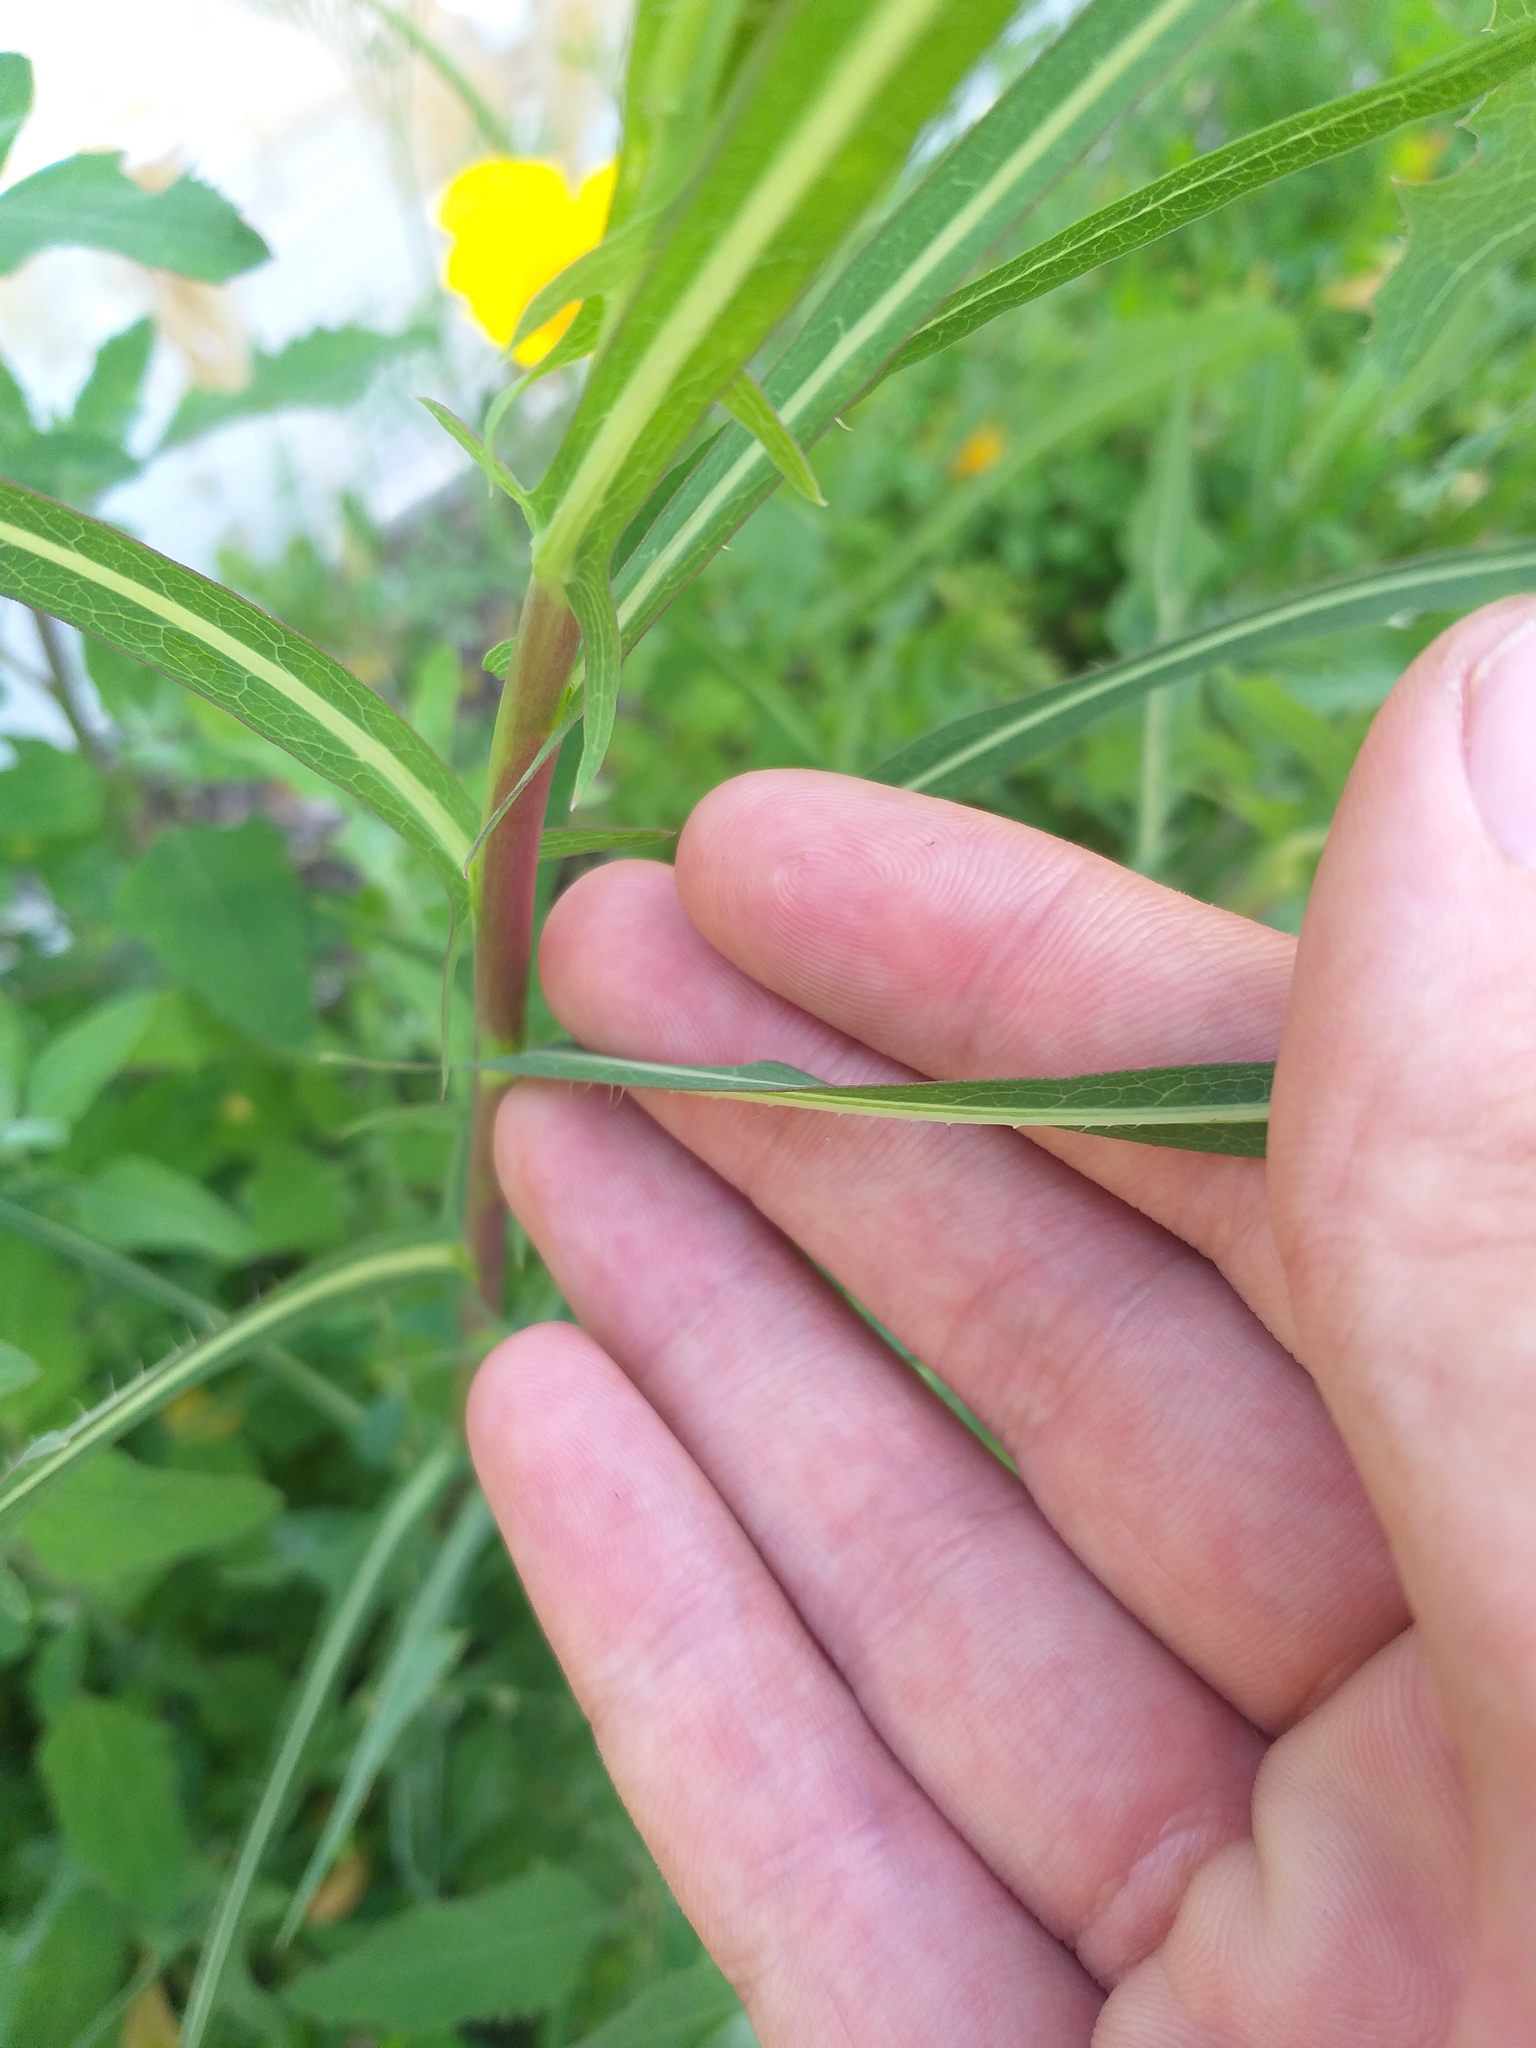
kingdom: Plantae
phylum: Tracheophyta
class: Magnoliopsida
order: Asterales
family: Asteraceae
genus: Lactuca
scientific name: Lactuca serriola
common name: Prickly lettuce
